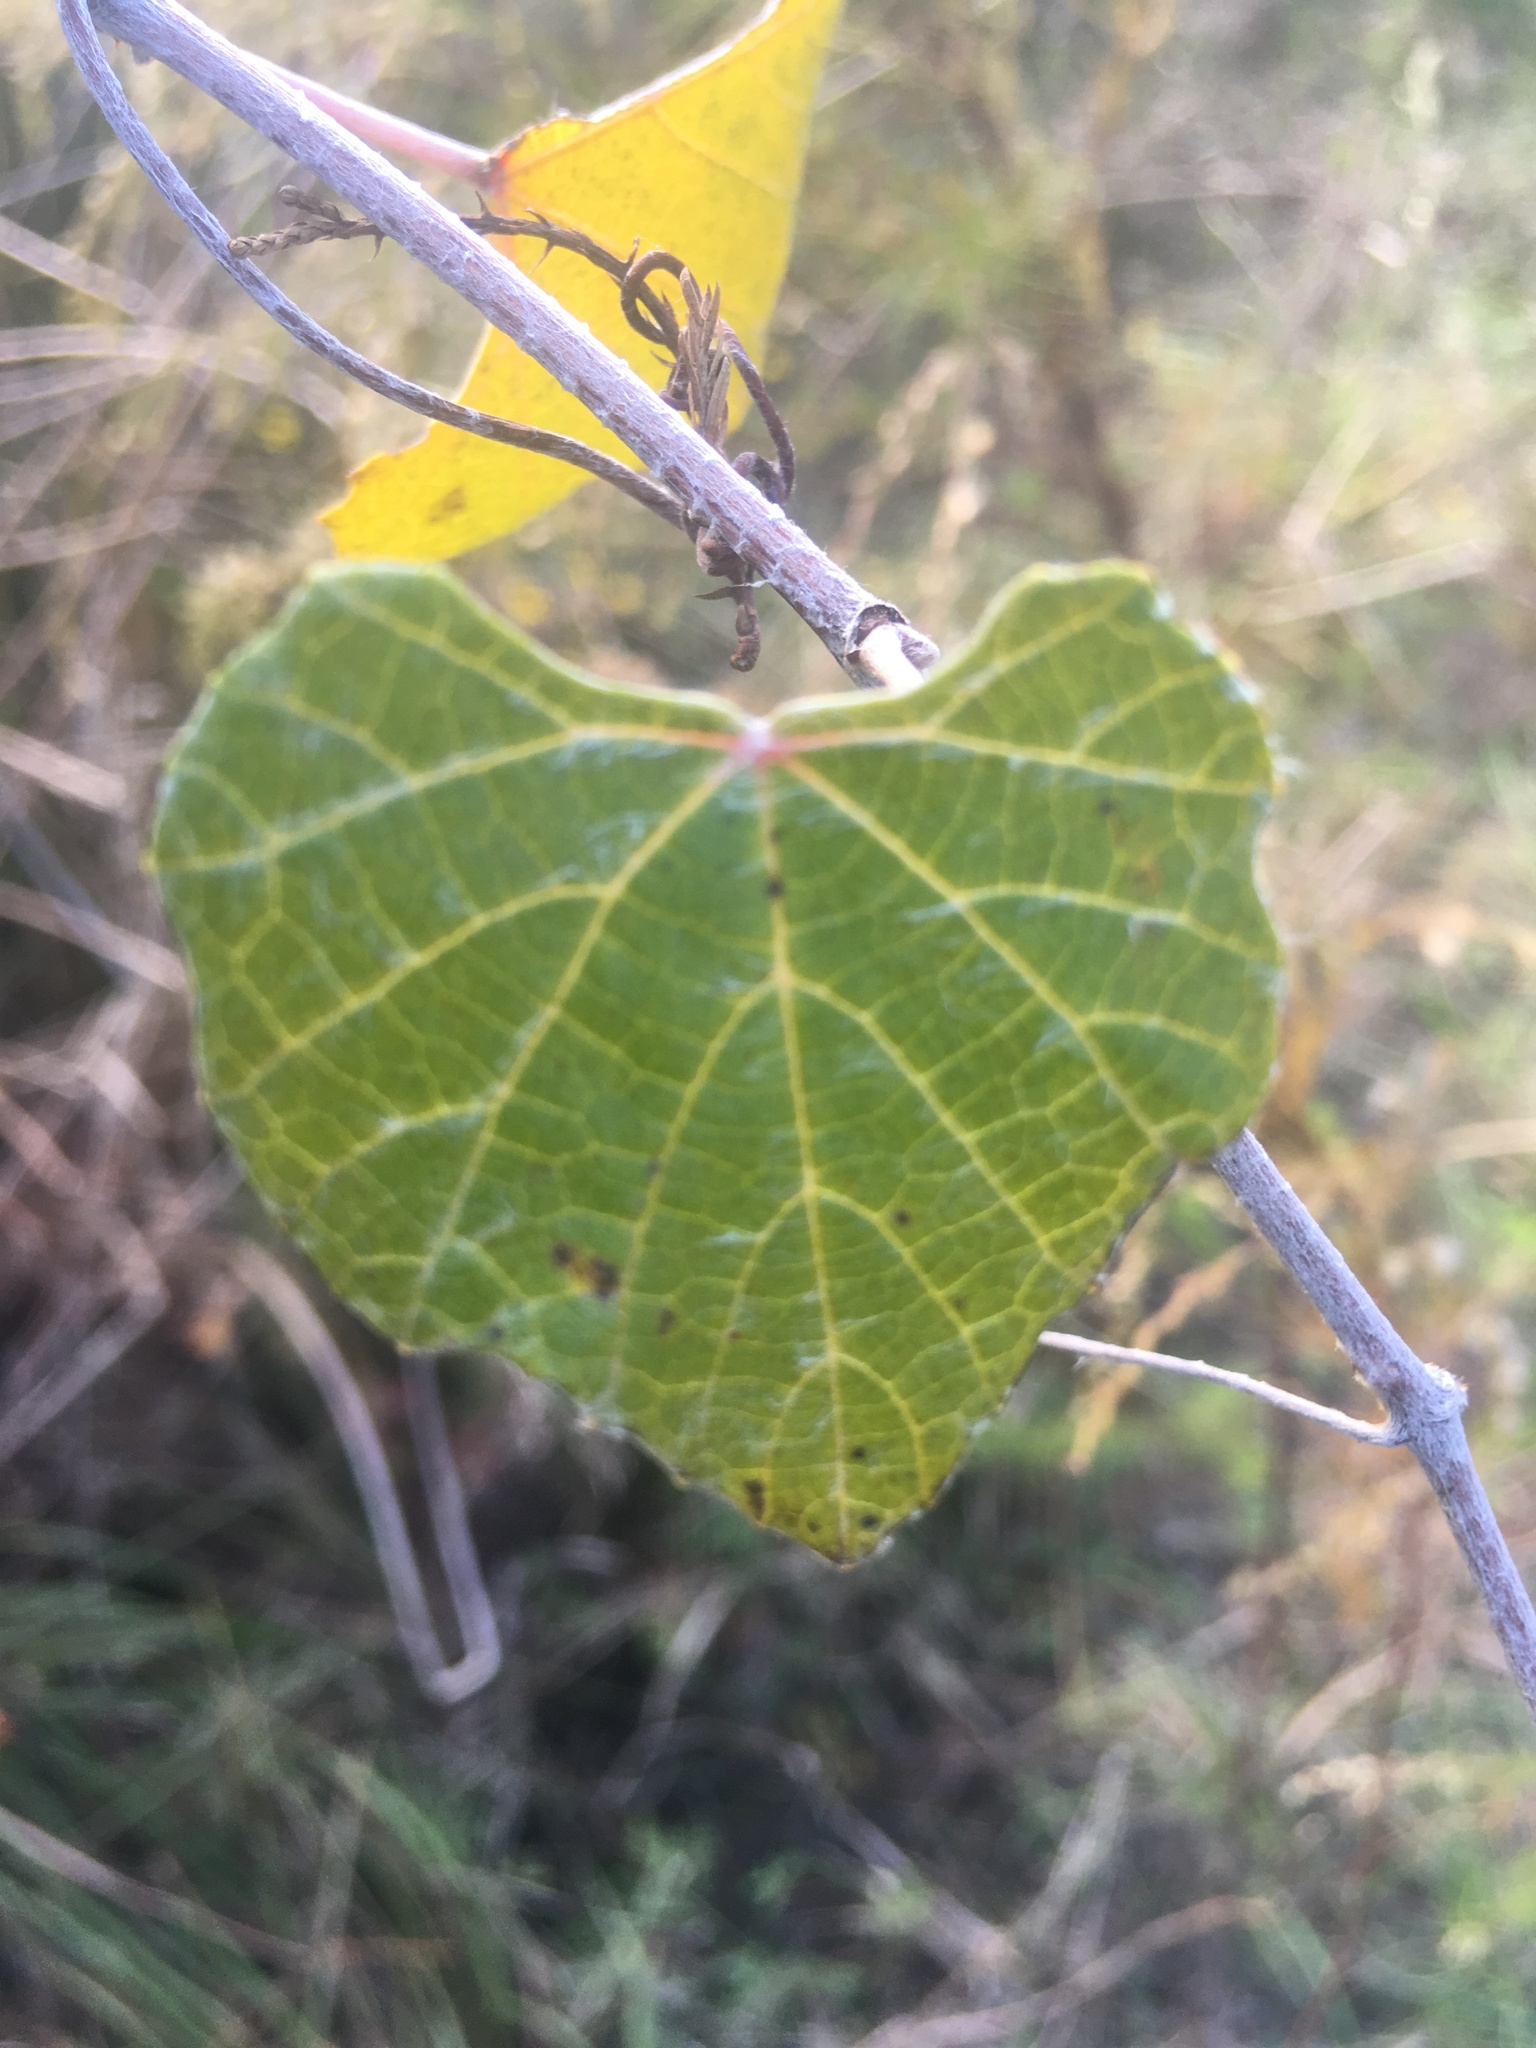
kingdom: Plantae
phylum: Tracheophyta
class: Magnoliopsida
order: Vitales
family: Vitaceae
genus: Vitis
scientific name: Vitis shuttleworthii
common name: Caloosa grape
